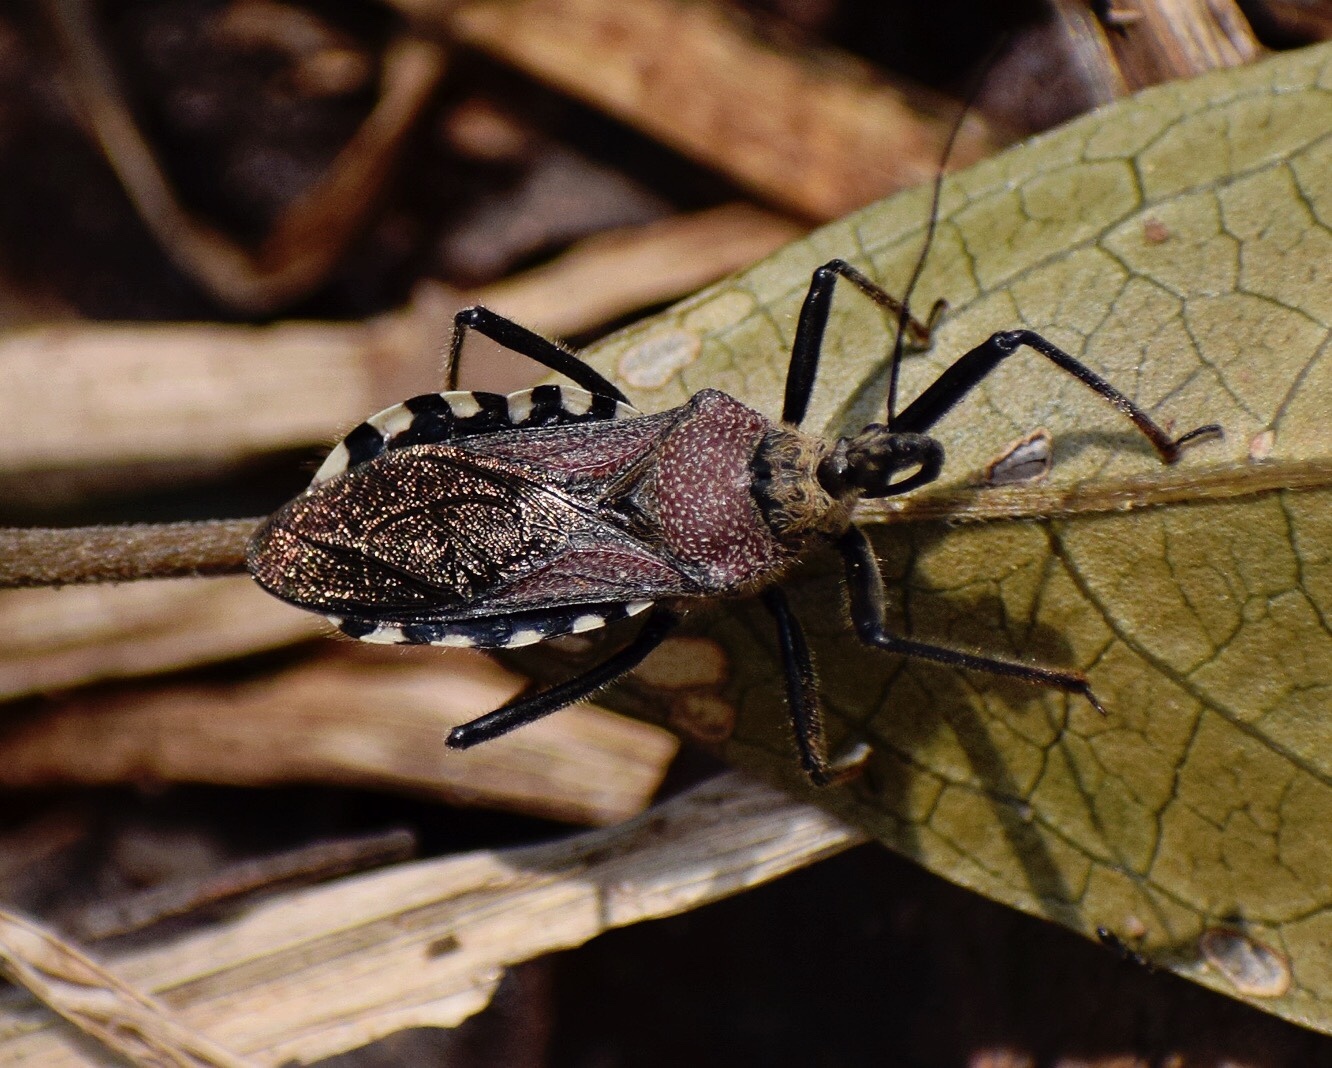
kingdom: Animalia
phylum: Arthropoda
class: Insecta
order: Hemiptera
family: Reduviidae
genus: Rhynocoris
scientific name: Rhynocoris erythrocnemis
